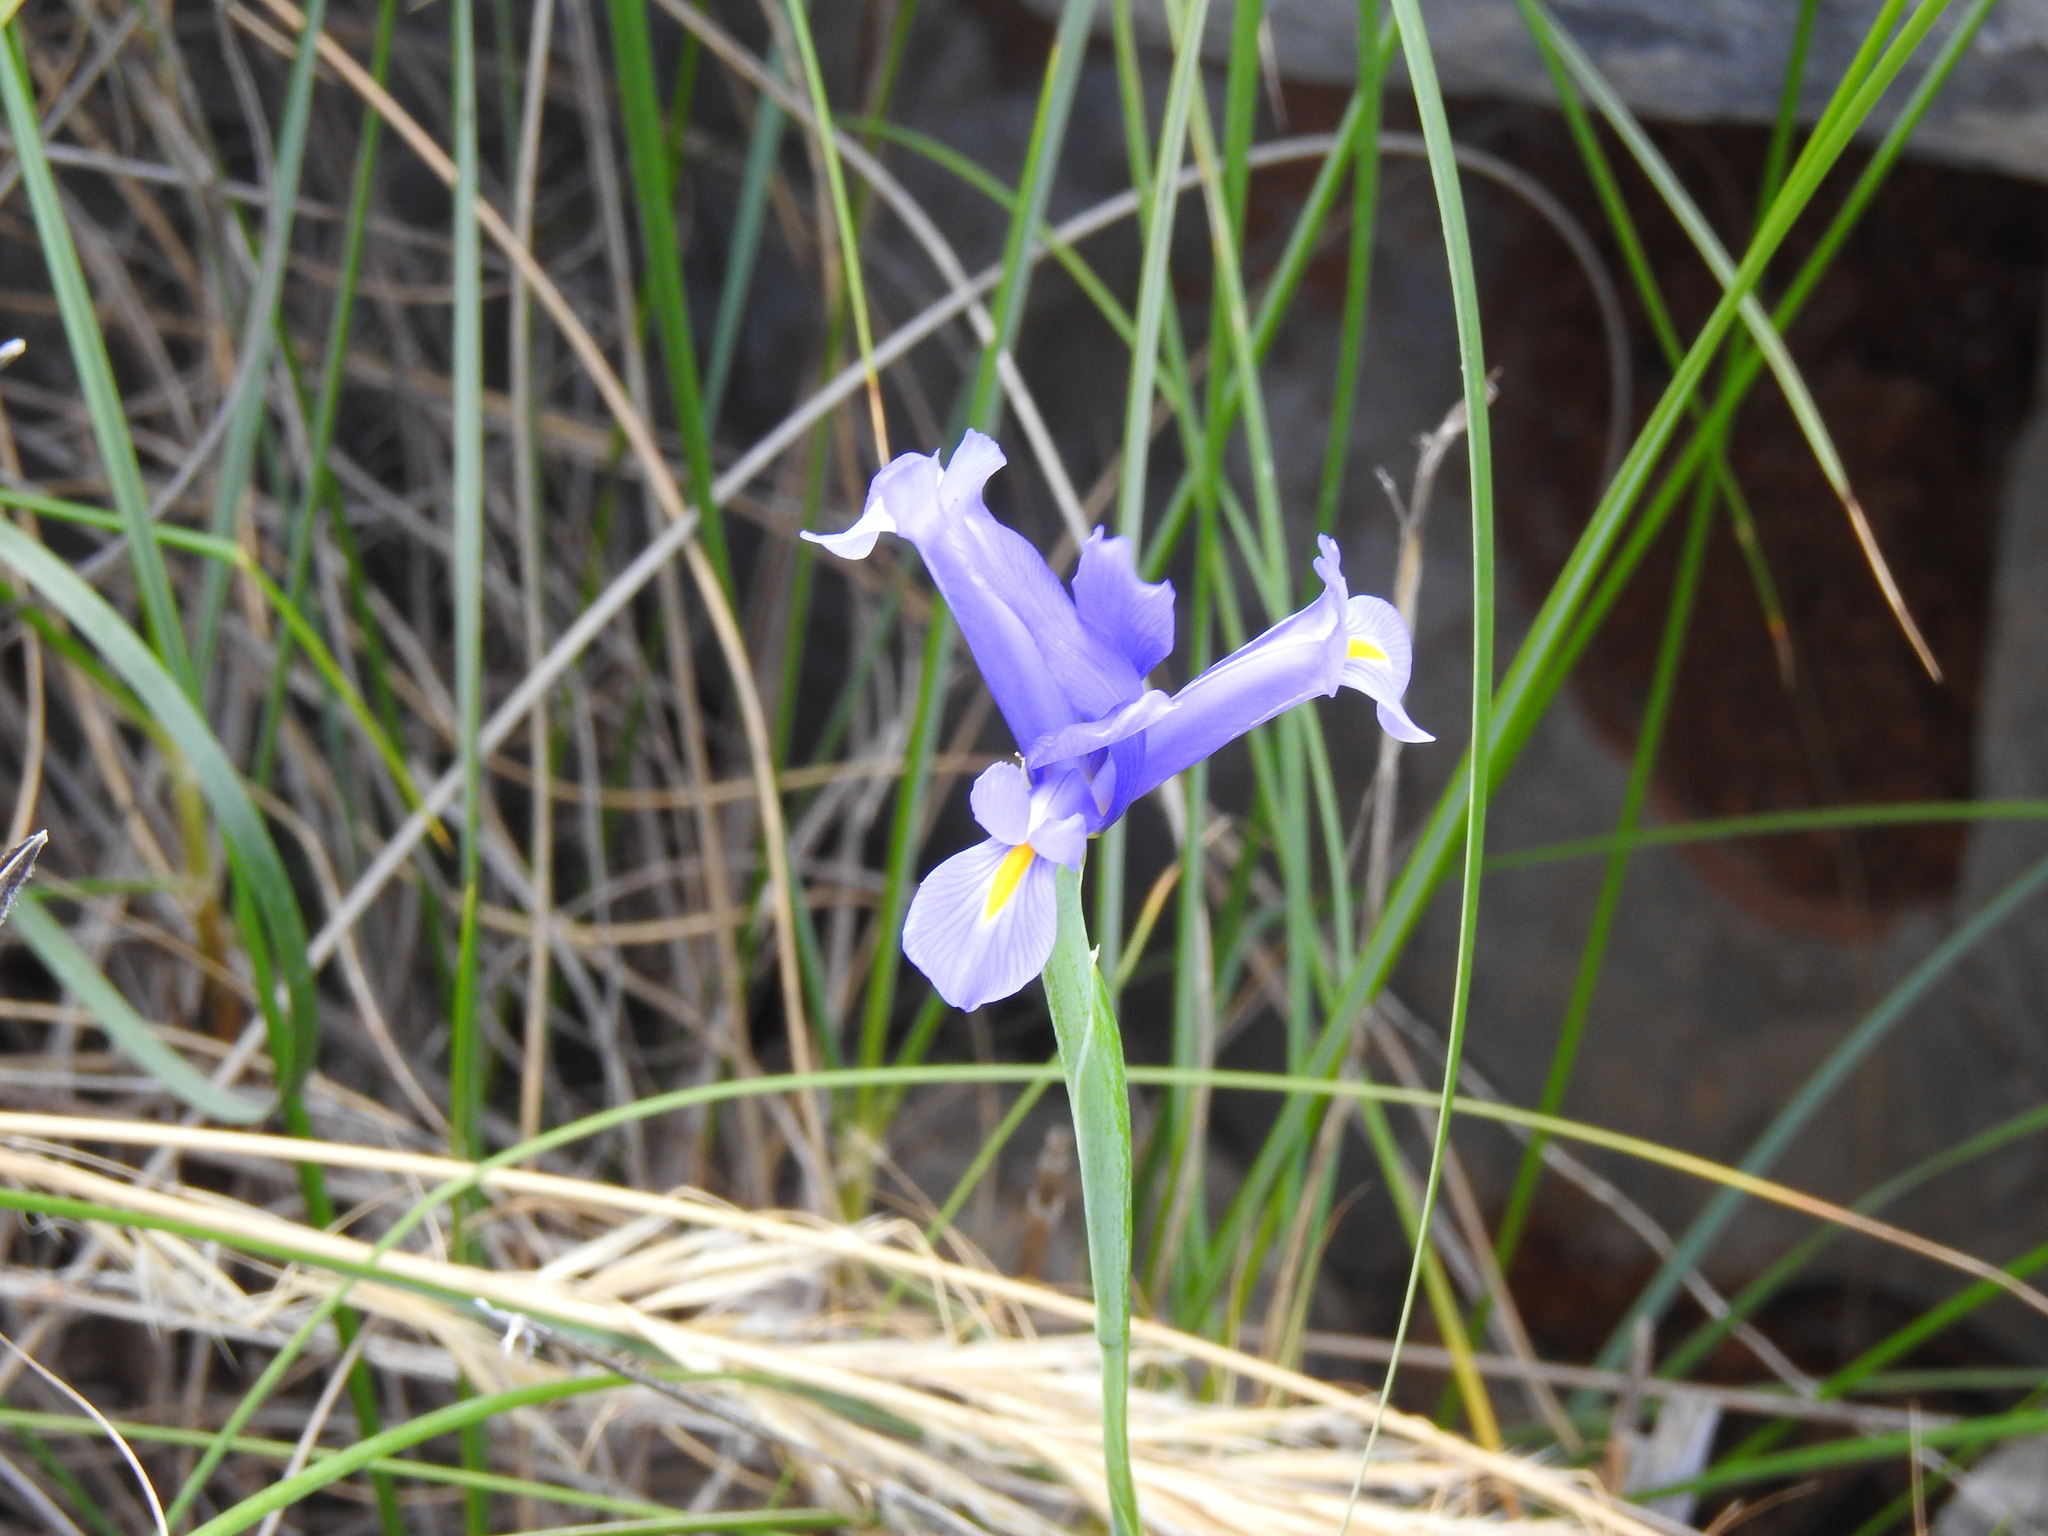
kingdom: Plantae
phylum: Tracheophyta
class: Liliopsida
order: Asparagales
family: Iridaceae
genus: Iris
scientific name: Iris xiphium
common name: Spanish iris
